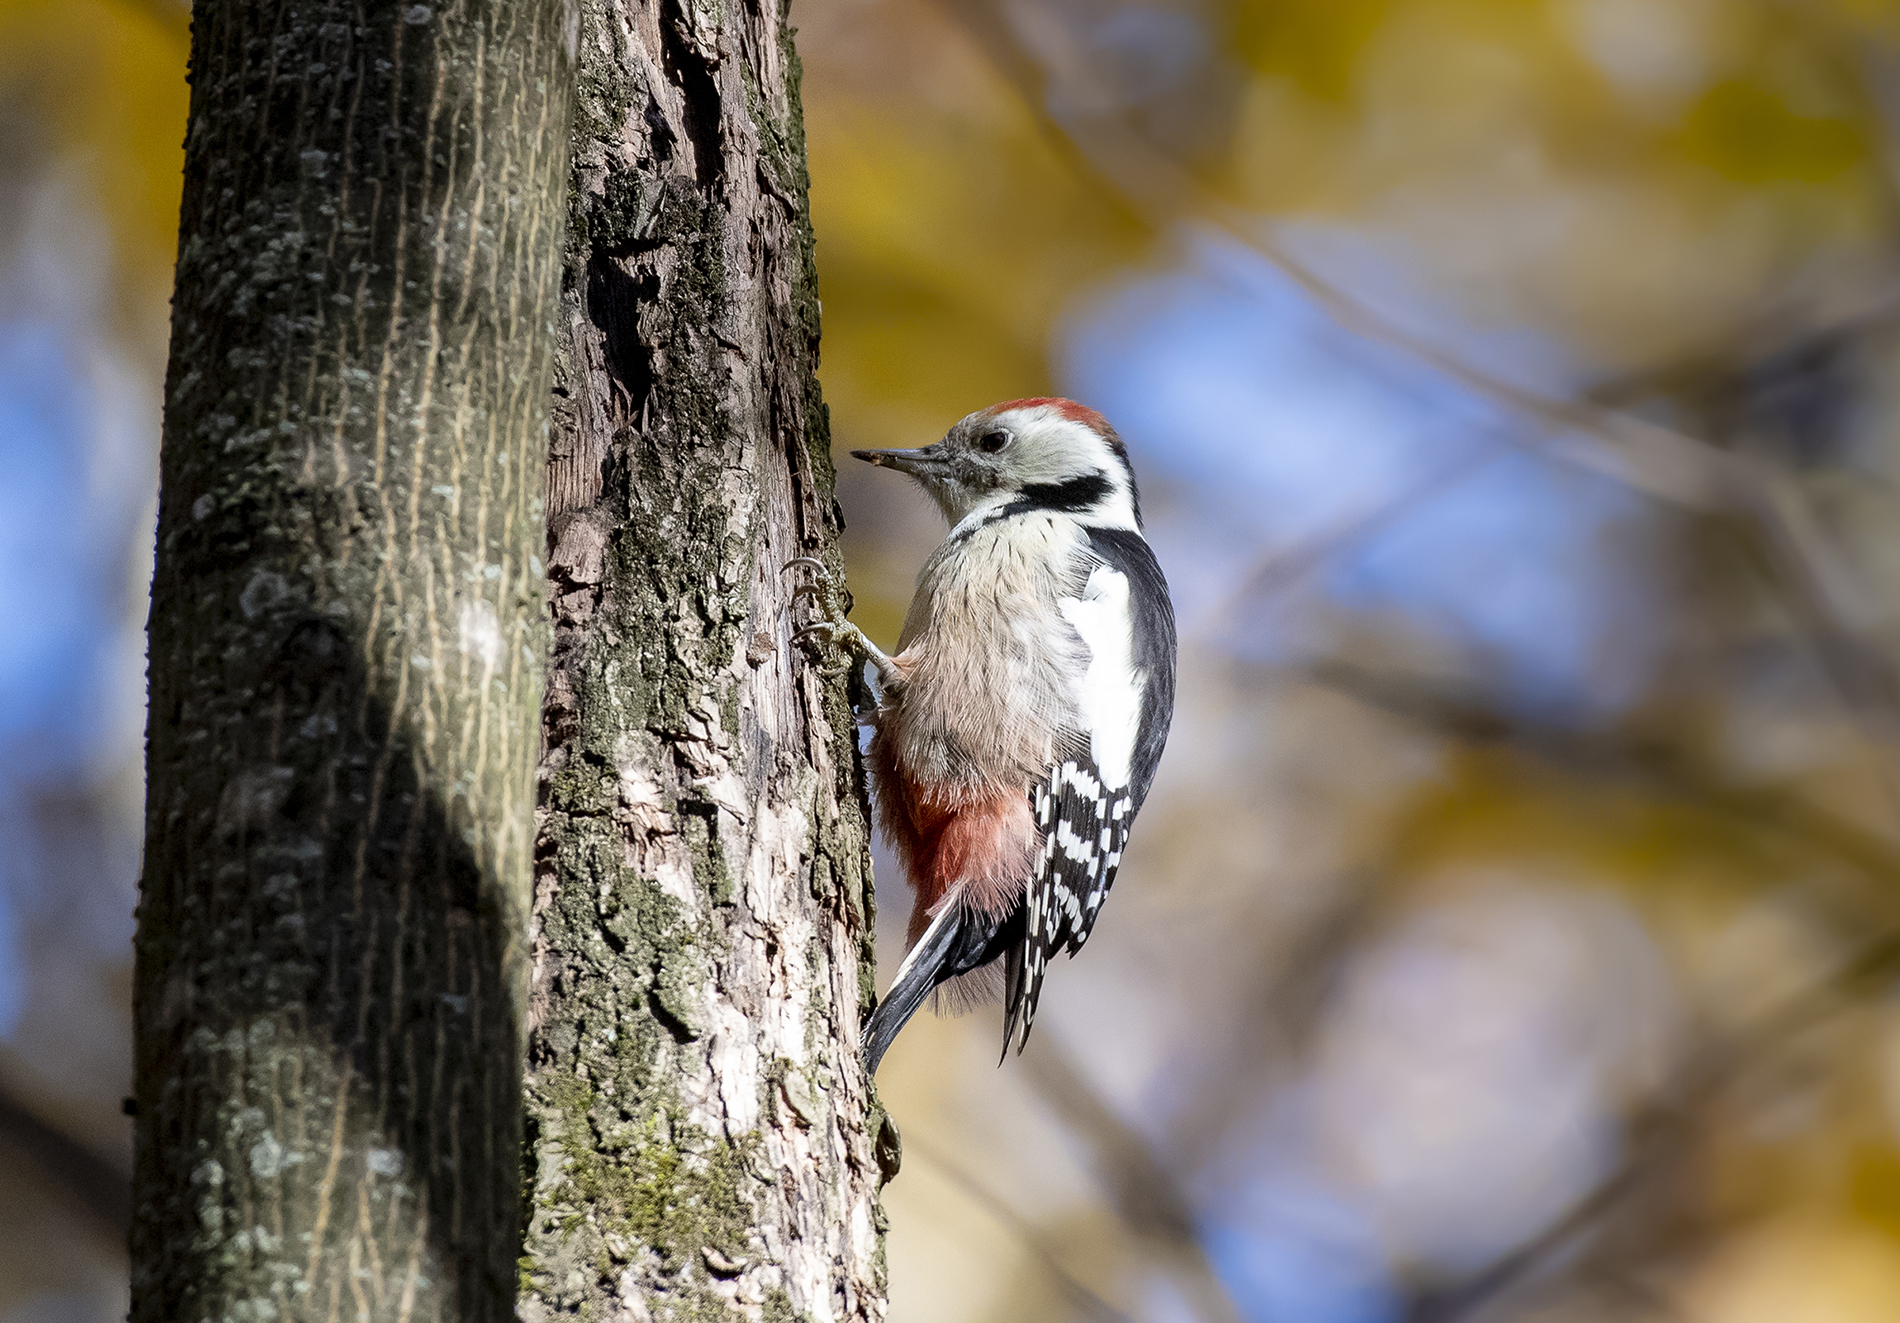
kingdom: Animalia
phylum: Chordata
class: Aves
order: Piciformes
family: Picidae
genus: Dendrocoptes
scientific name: Dendrocoptes medius
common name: Middle spotted woodpecker
